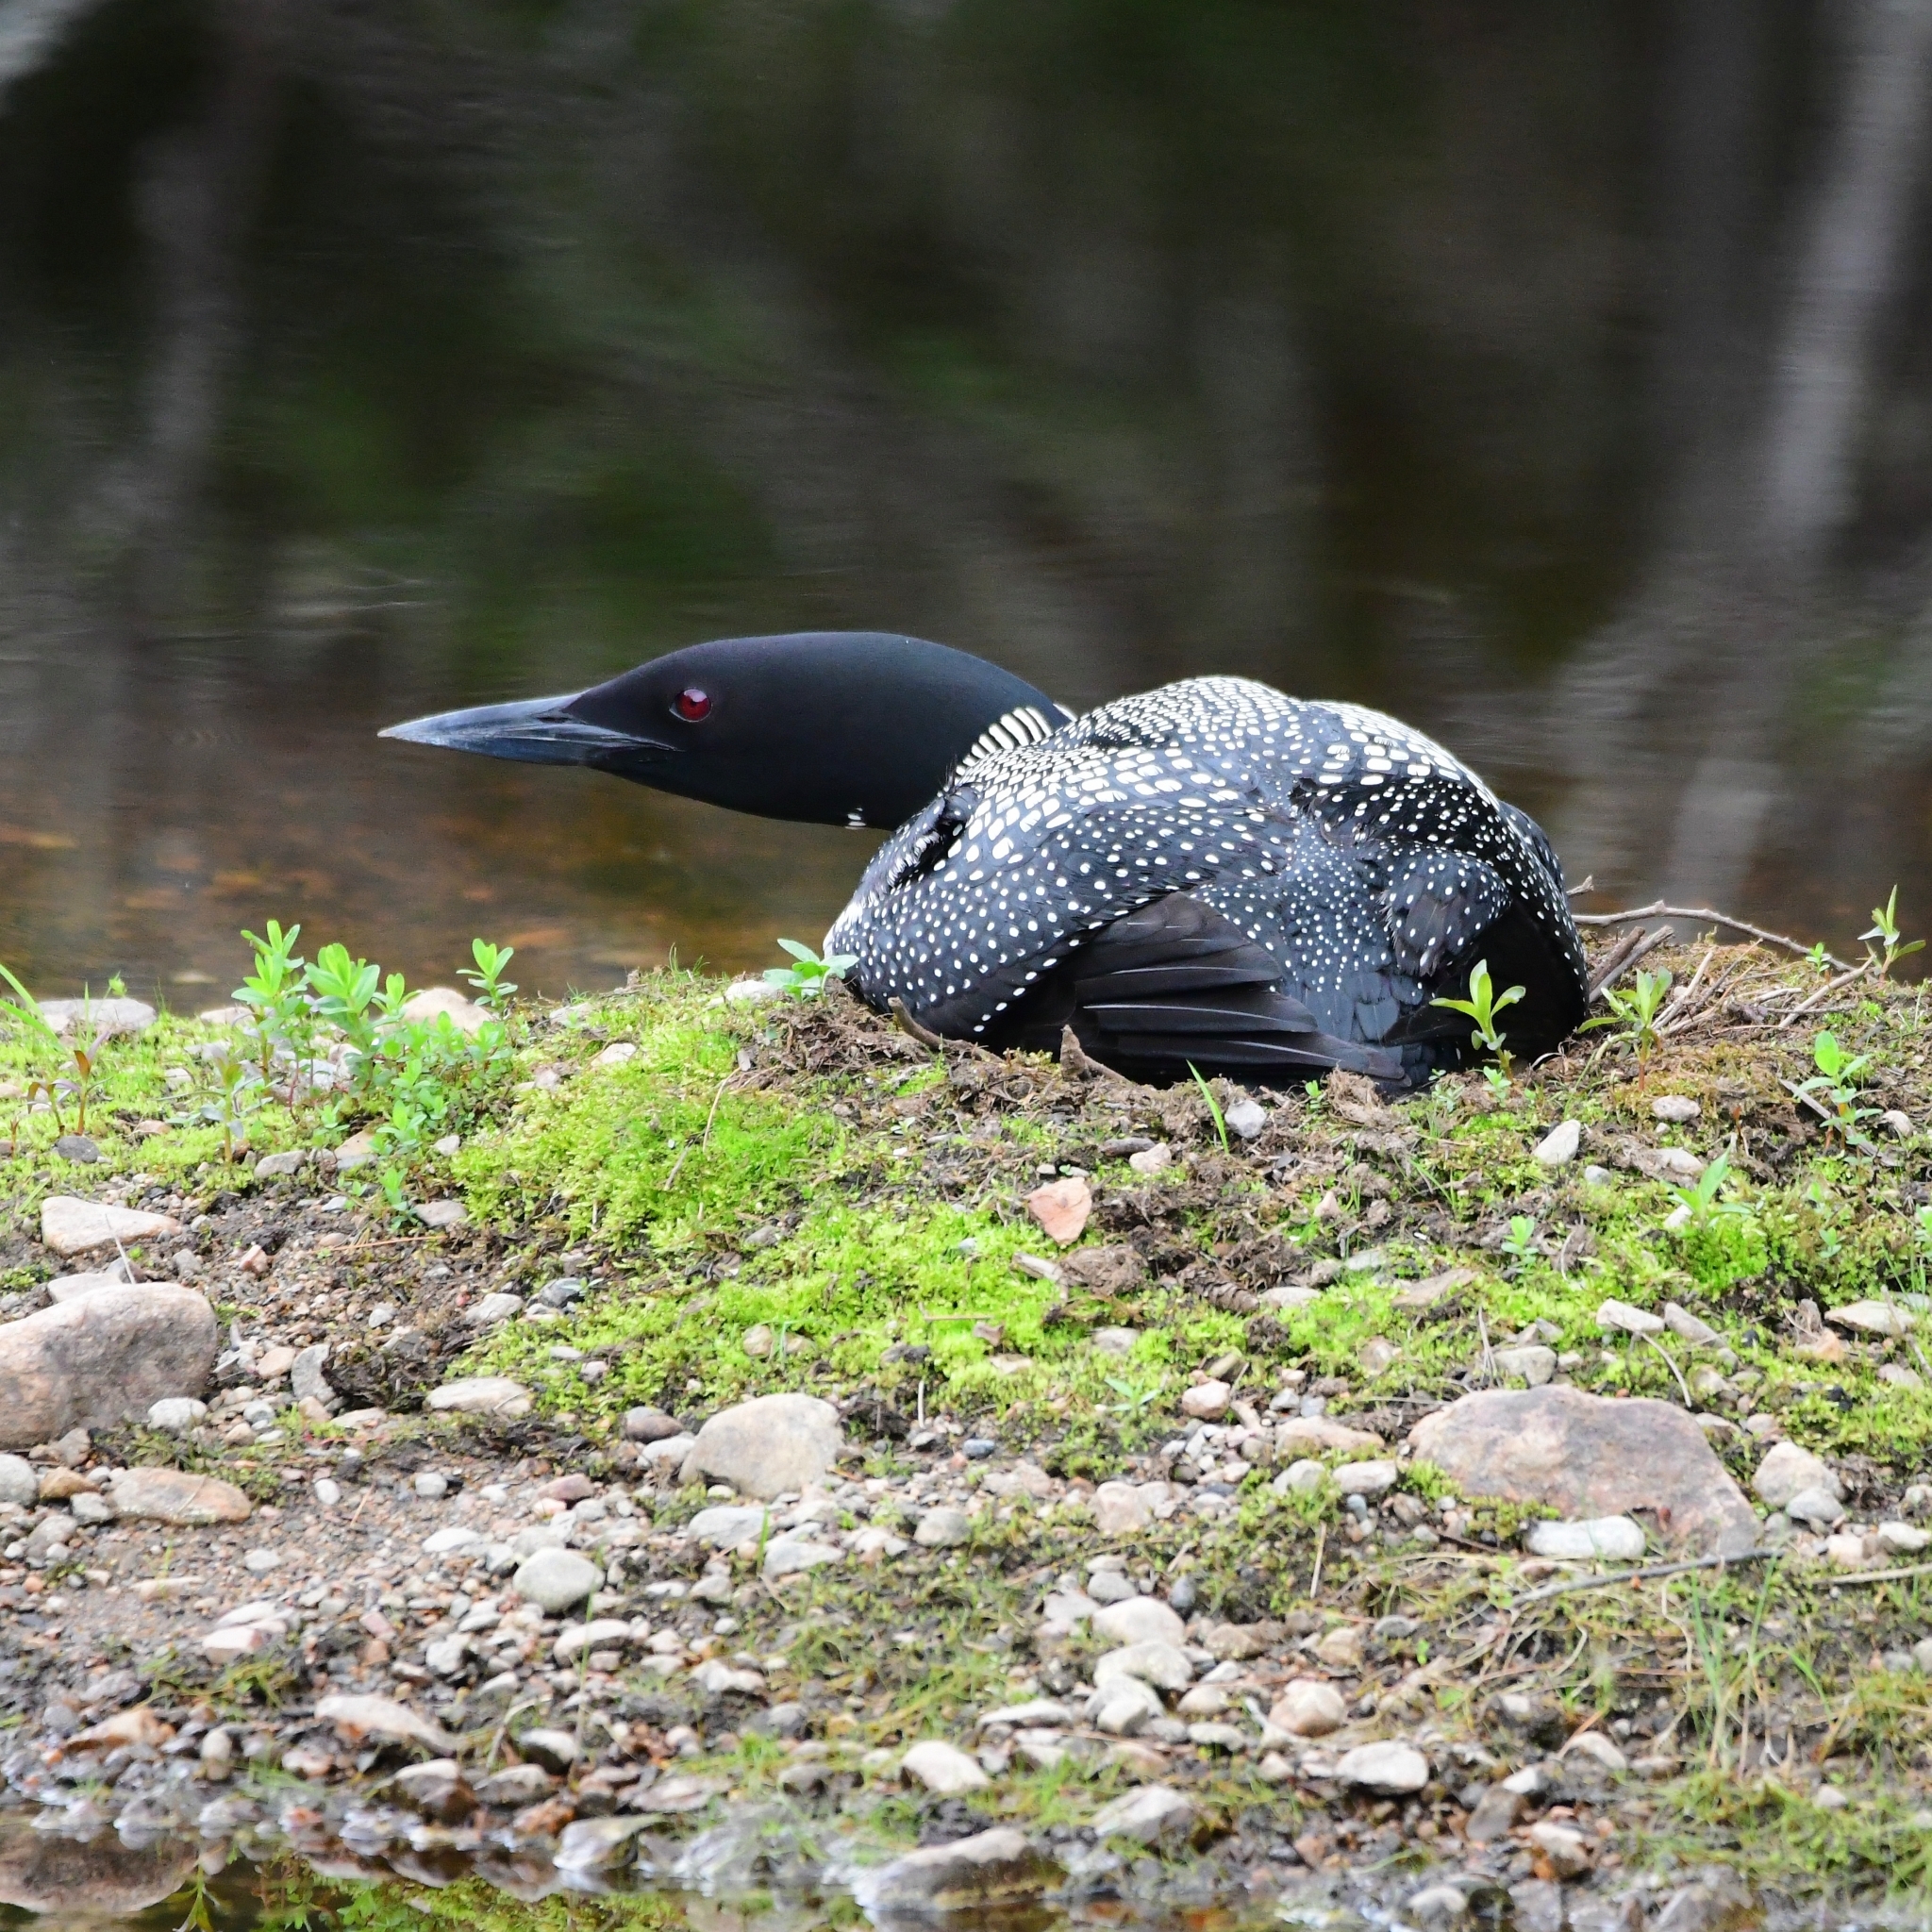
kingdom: Animalia
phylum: Chordata
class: Aves
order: Gaviiformes
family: Gaviidae
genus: Gavia
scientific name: Gavia immer
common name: Common loon
